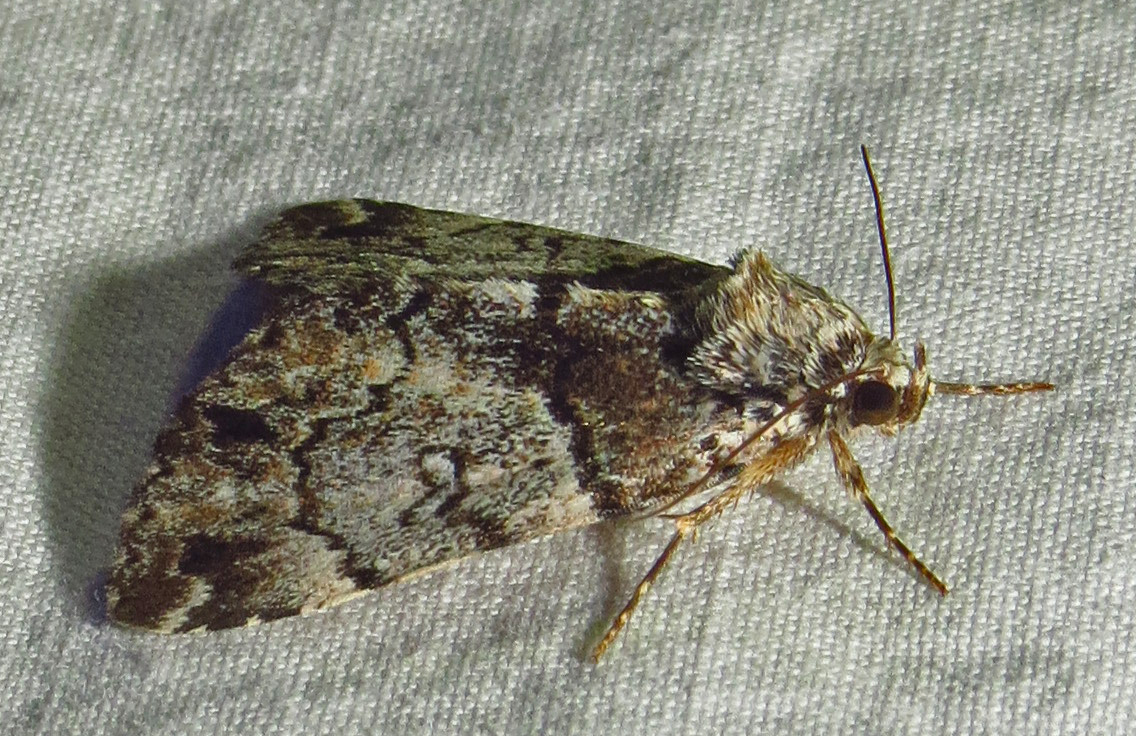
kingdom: Animalia
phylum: Arthropoda
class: Insecta
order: Lepidoptera
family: Erebidae
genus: Allotria
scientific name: Allotria elonympha
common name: False underwing
